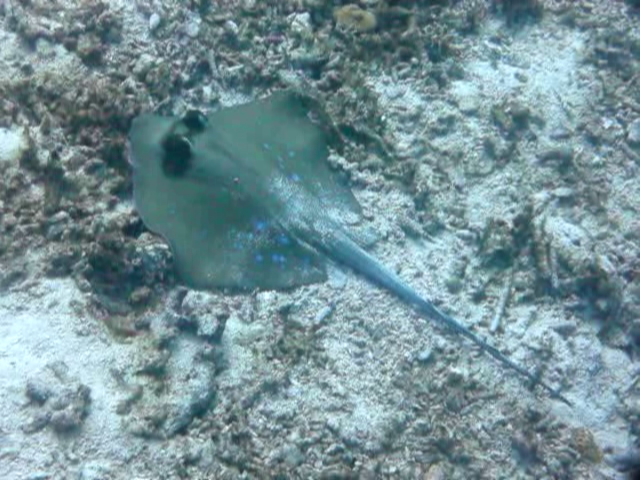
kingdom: Animalia
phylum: Chordata
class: Elasmobranchii
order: Myliobatiformes
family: Dasyatidae
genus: Neotrygon
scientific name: Neotrygon orientale
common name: Oriental bluespotted maskray
